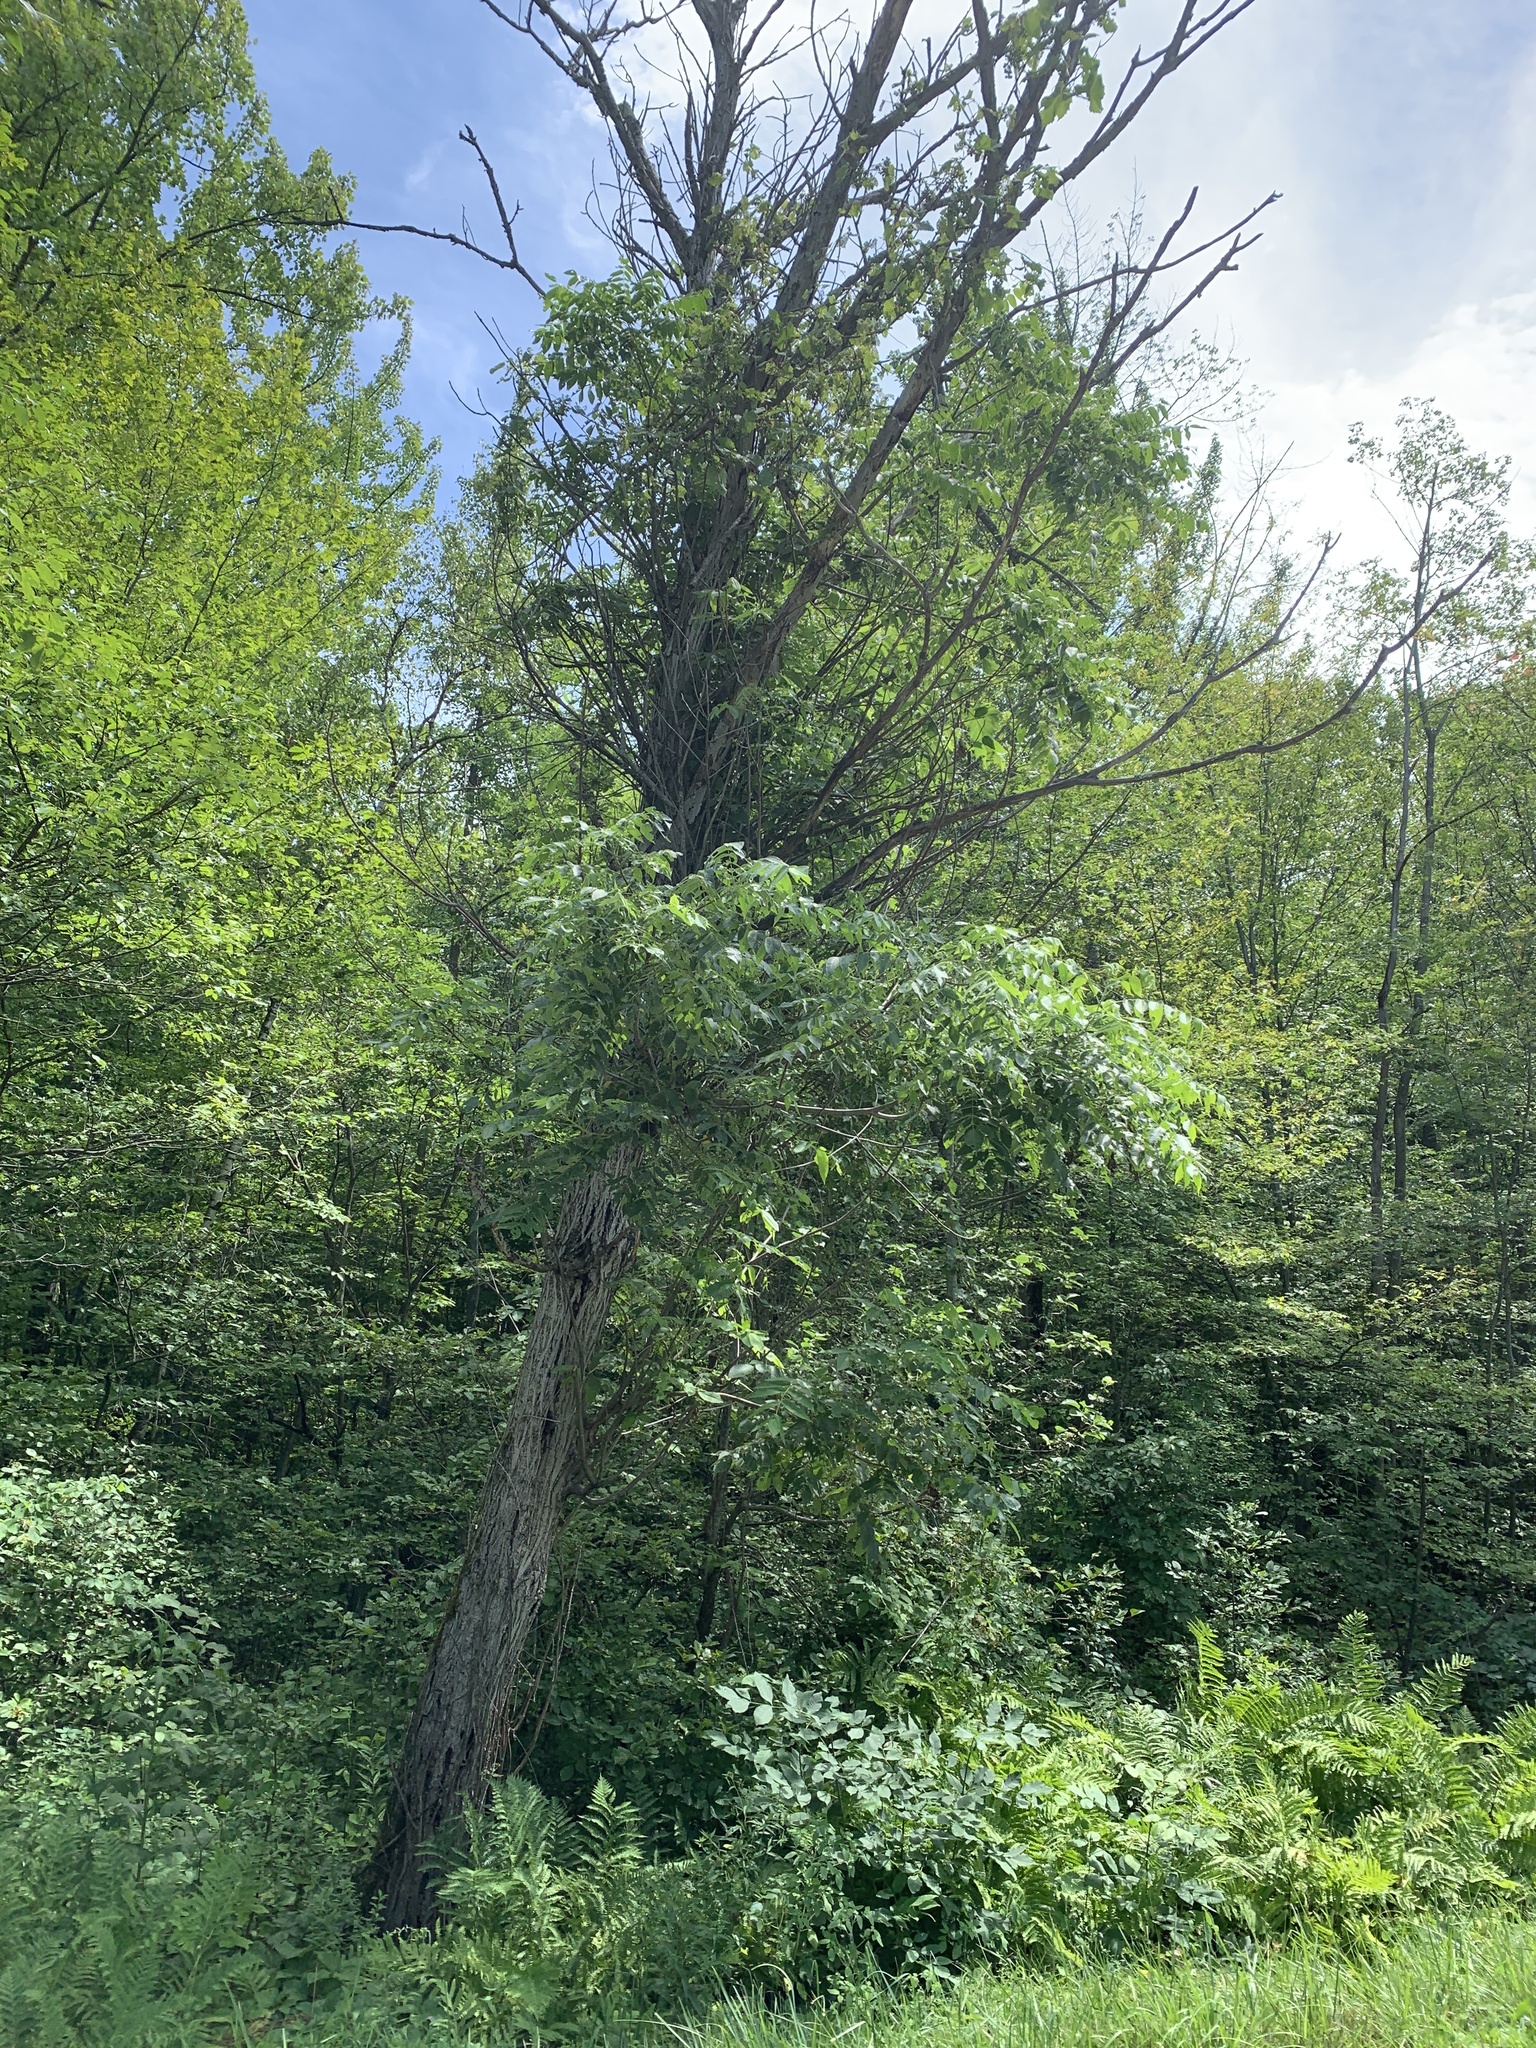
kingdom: Plantae
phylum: Tracheophyta
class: Magnoliopsida
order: Fagales
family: Juglandaceae
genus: Juglans
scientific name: Juglans cinerea
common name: Butternut
